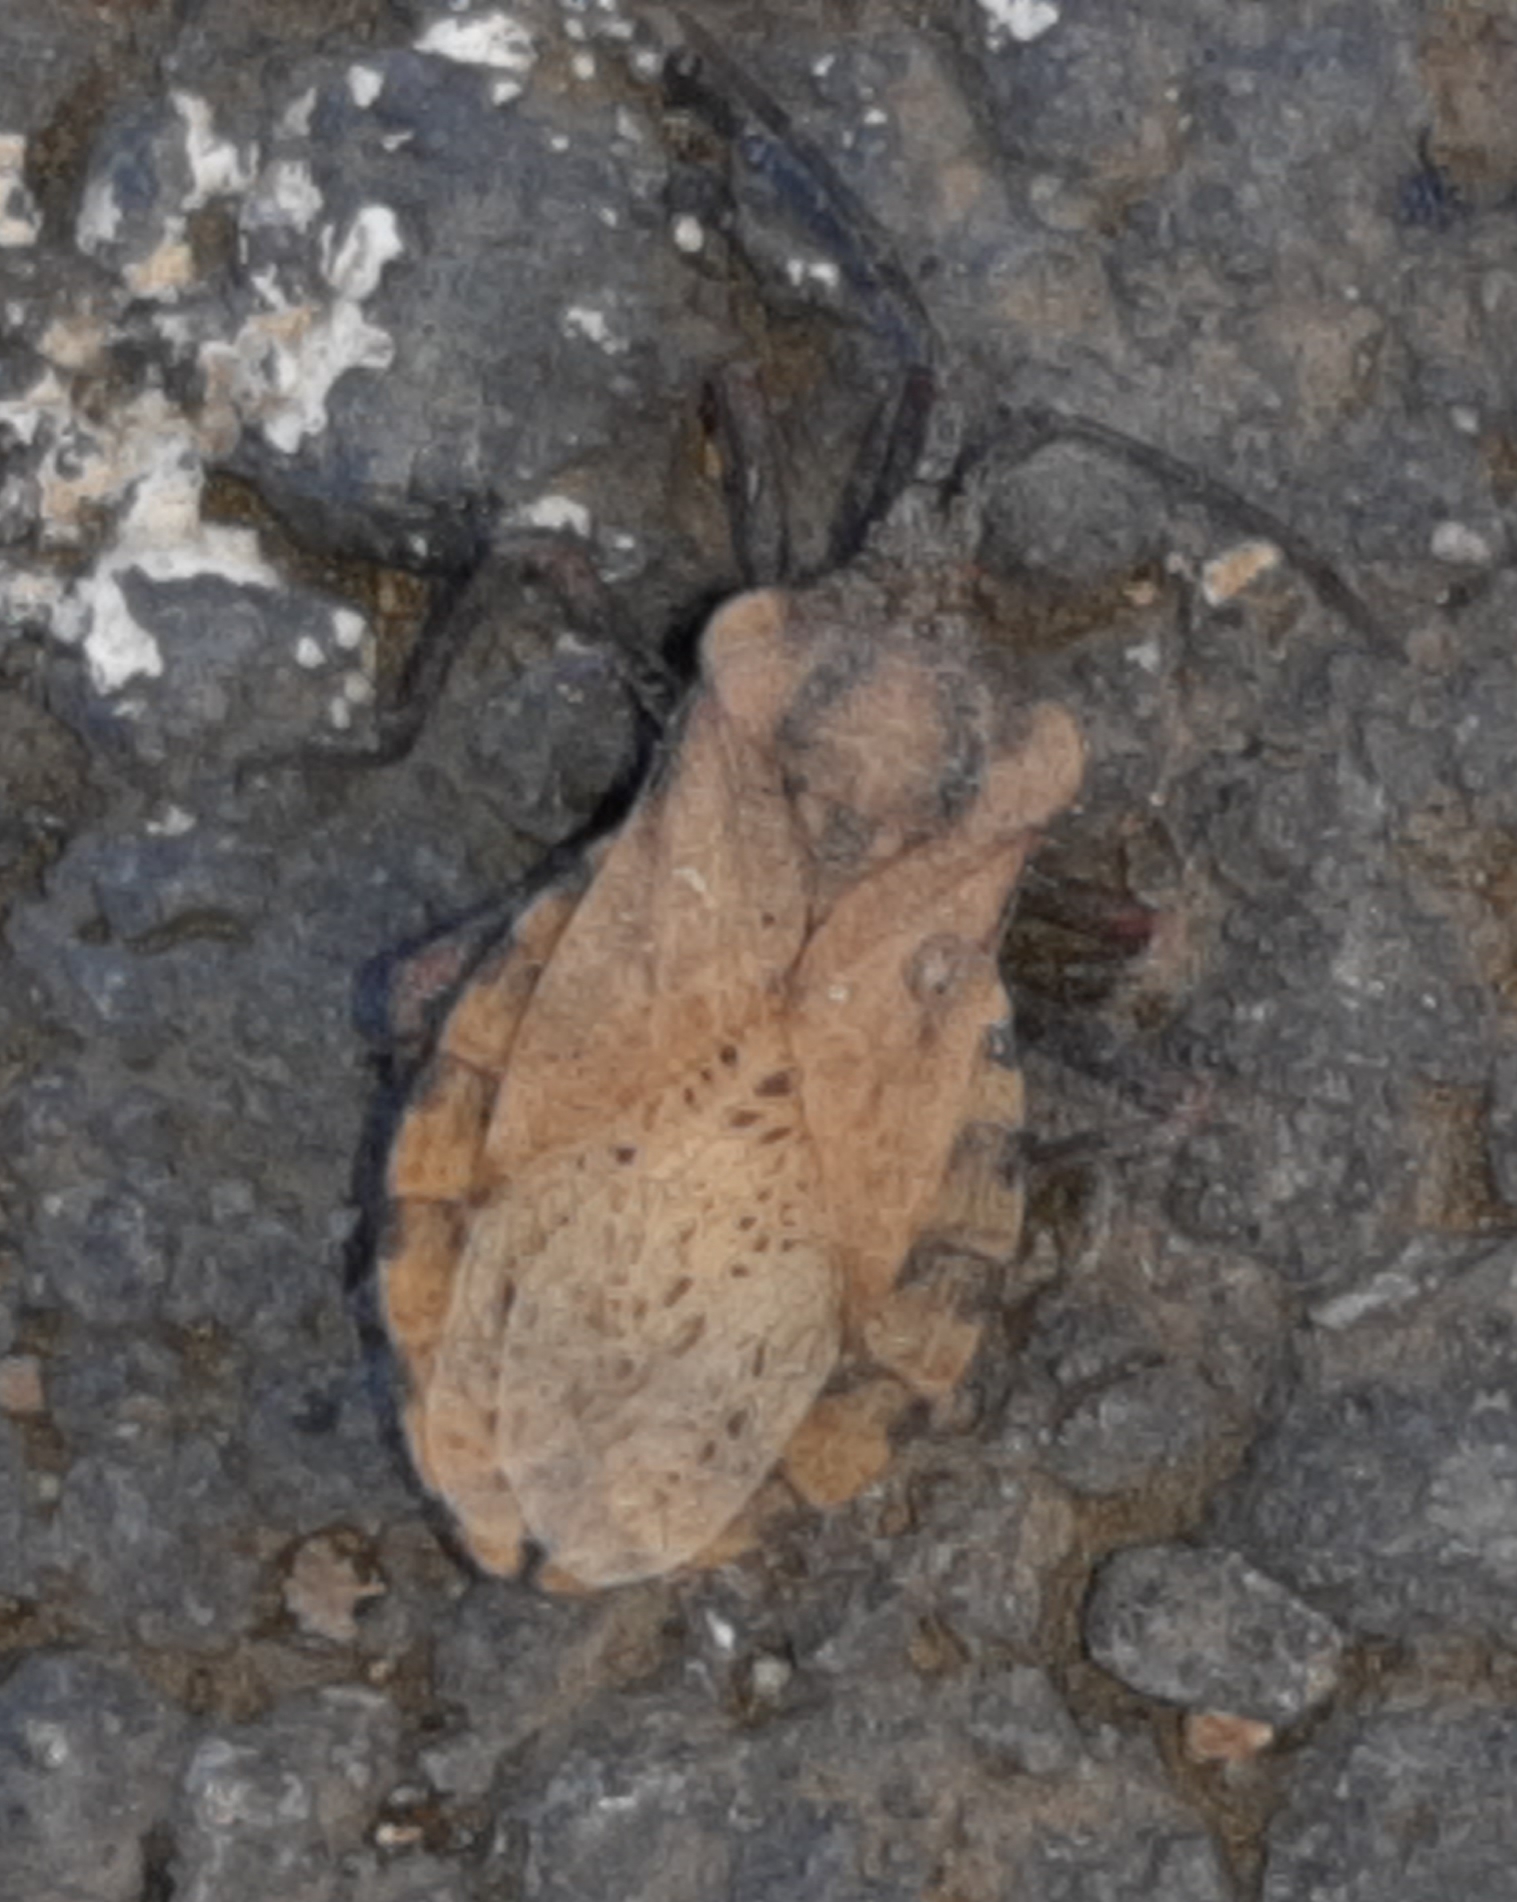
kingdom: Animalia
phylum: Arthropoda
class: Insecta
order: Hemiptera
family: Coreidae
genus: Spartocera
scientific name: Spartocera fusca
